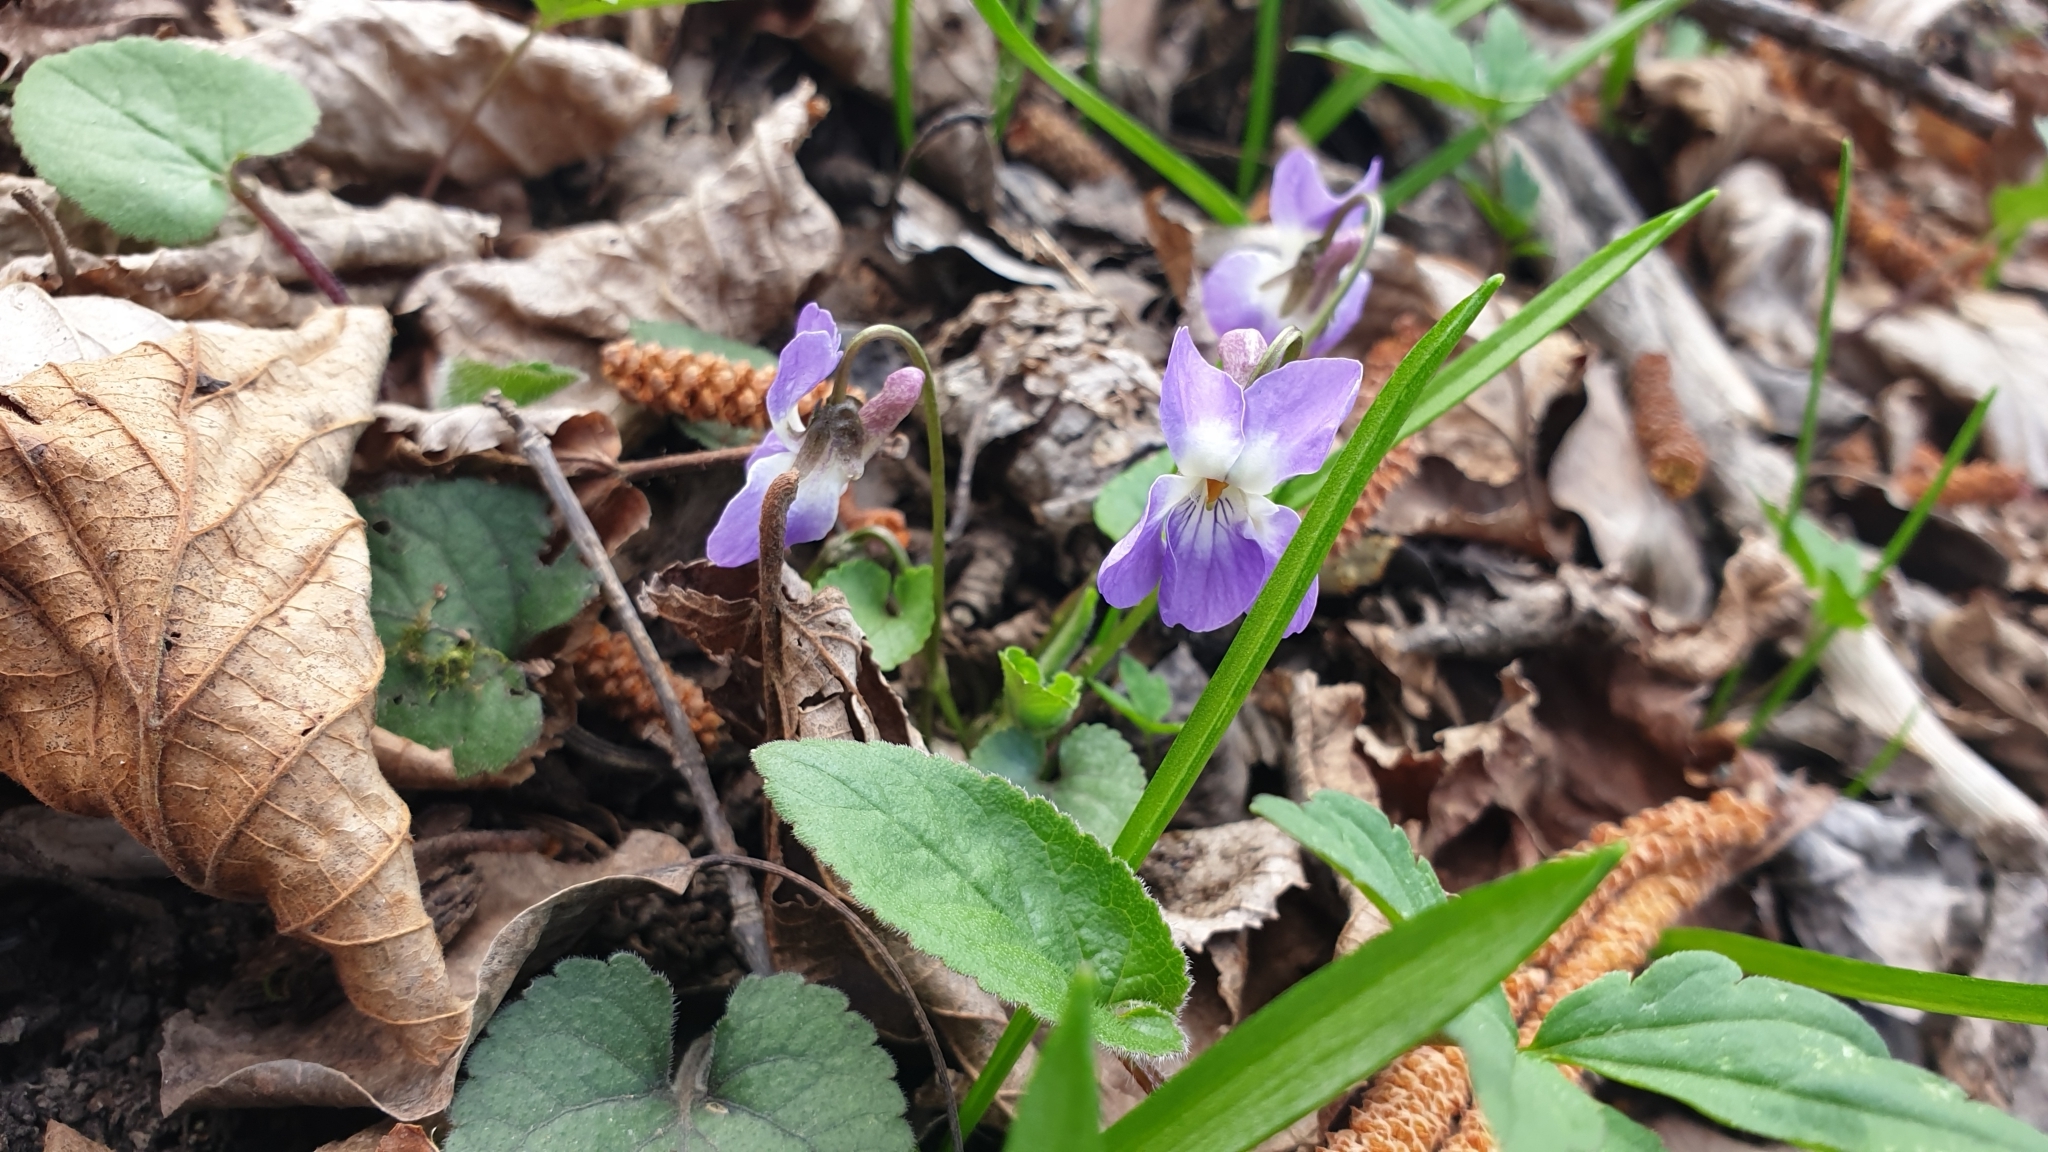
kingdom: Plantae
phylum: Tracheophyta
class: Magnoliopsida
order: Malpighiales
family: Violaceae
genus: Viola
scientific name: Viola alba
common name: White violet
